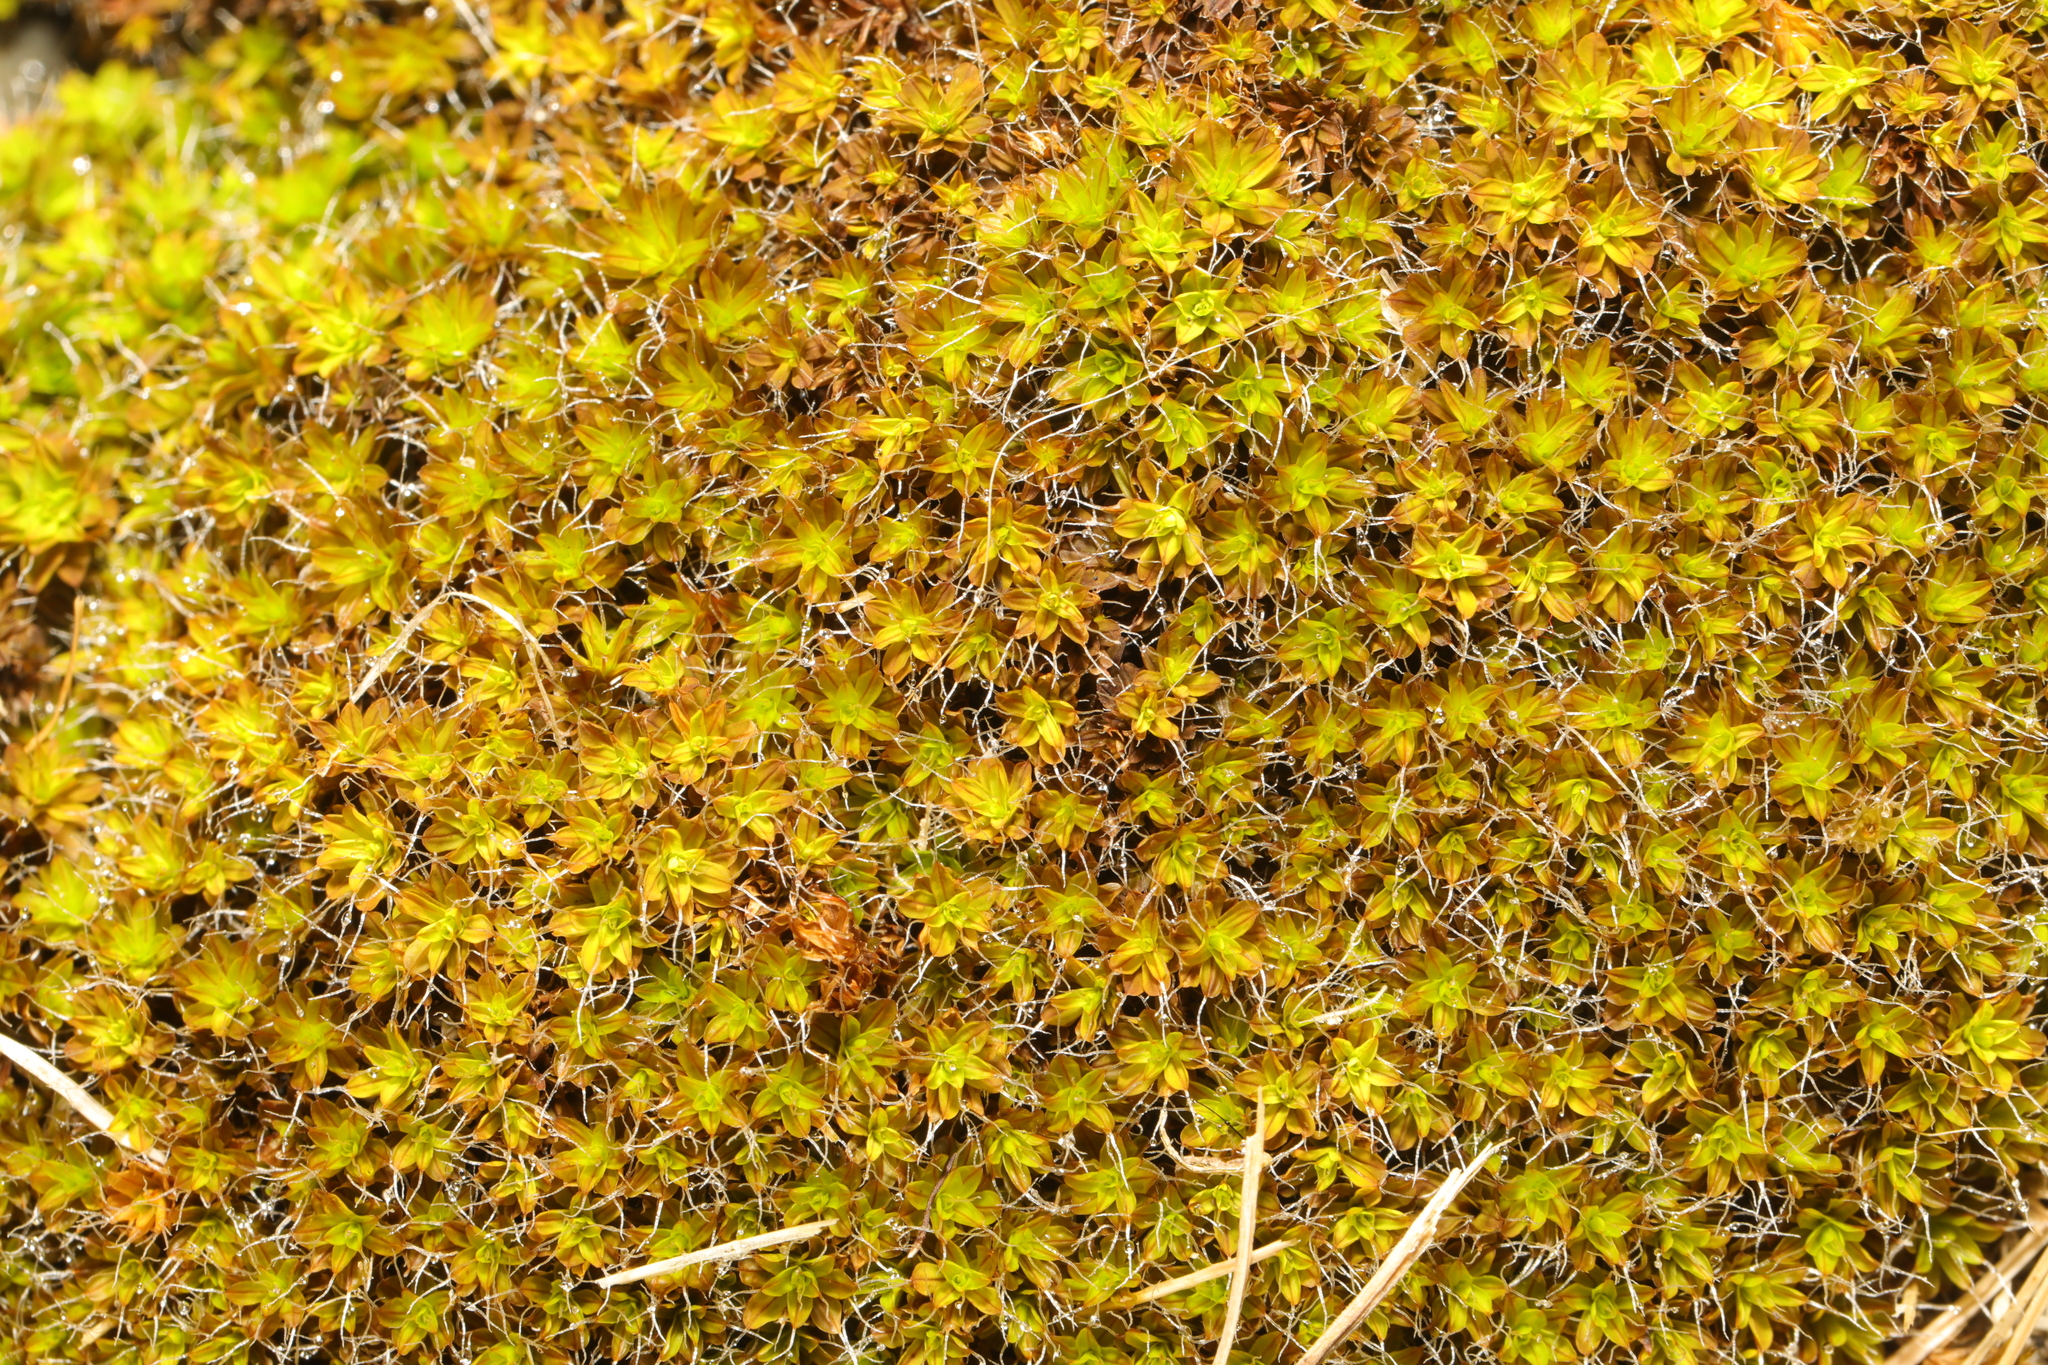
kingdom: Plantae
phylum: Bryophyta
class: Bryopsida
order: Pottiales
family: Pottiaceae
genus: Syntrichia
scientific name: Syntrichia montana
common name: Intermediate screw-moss
